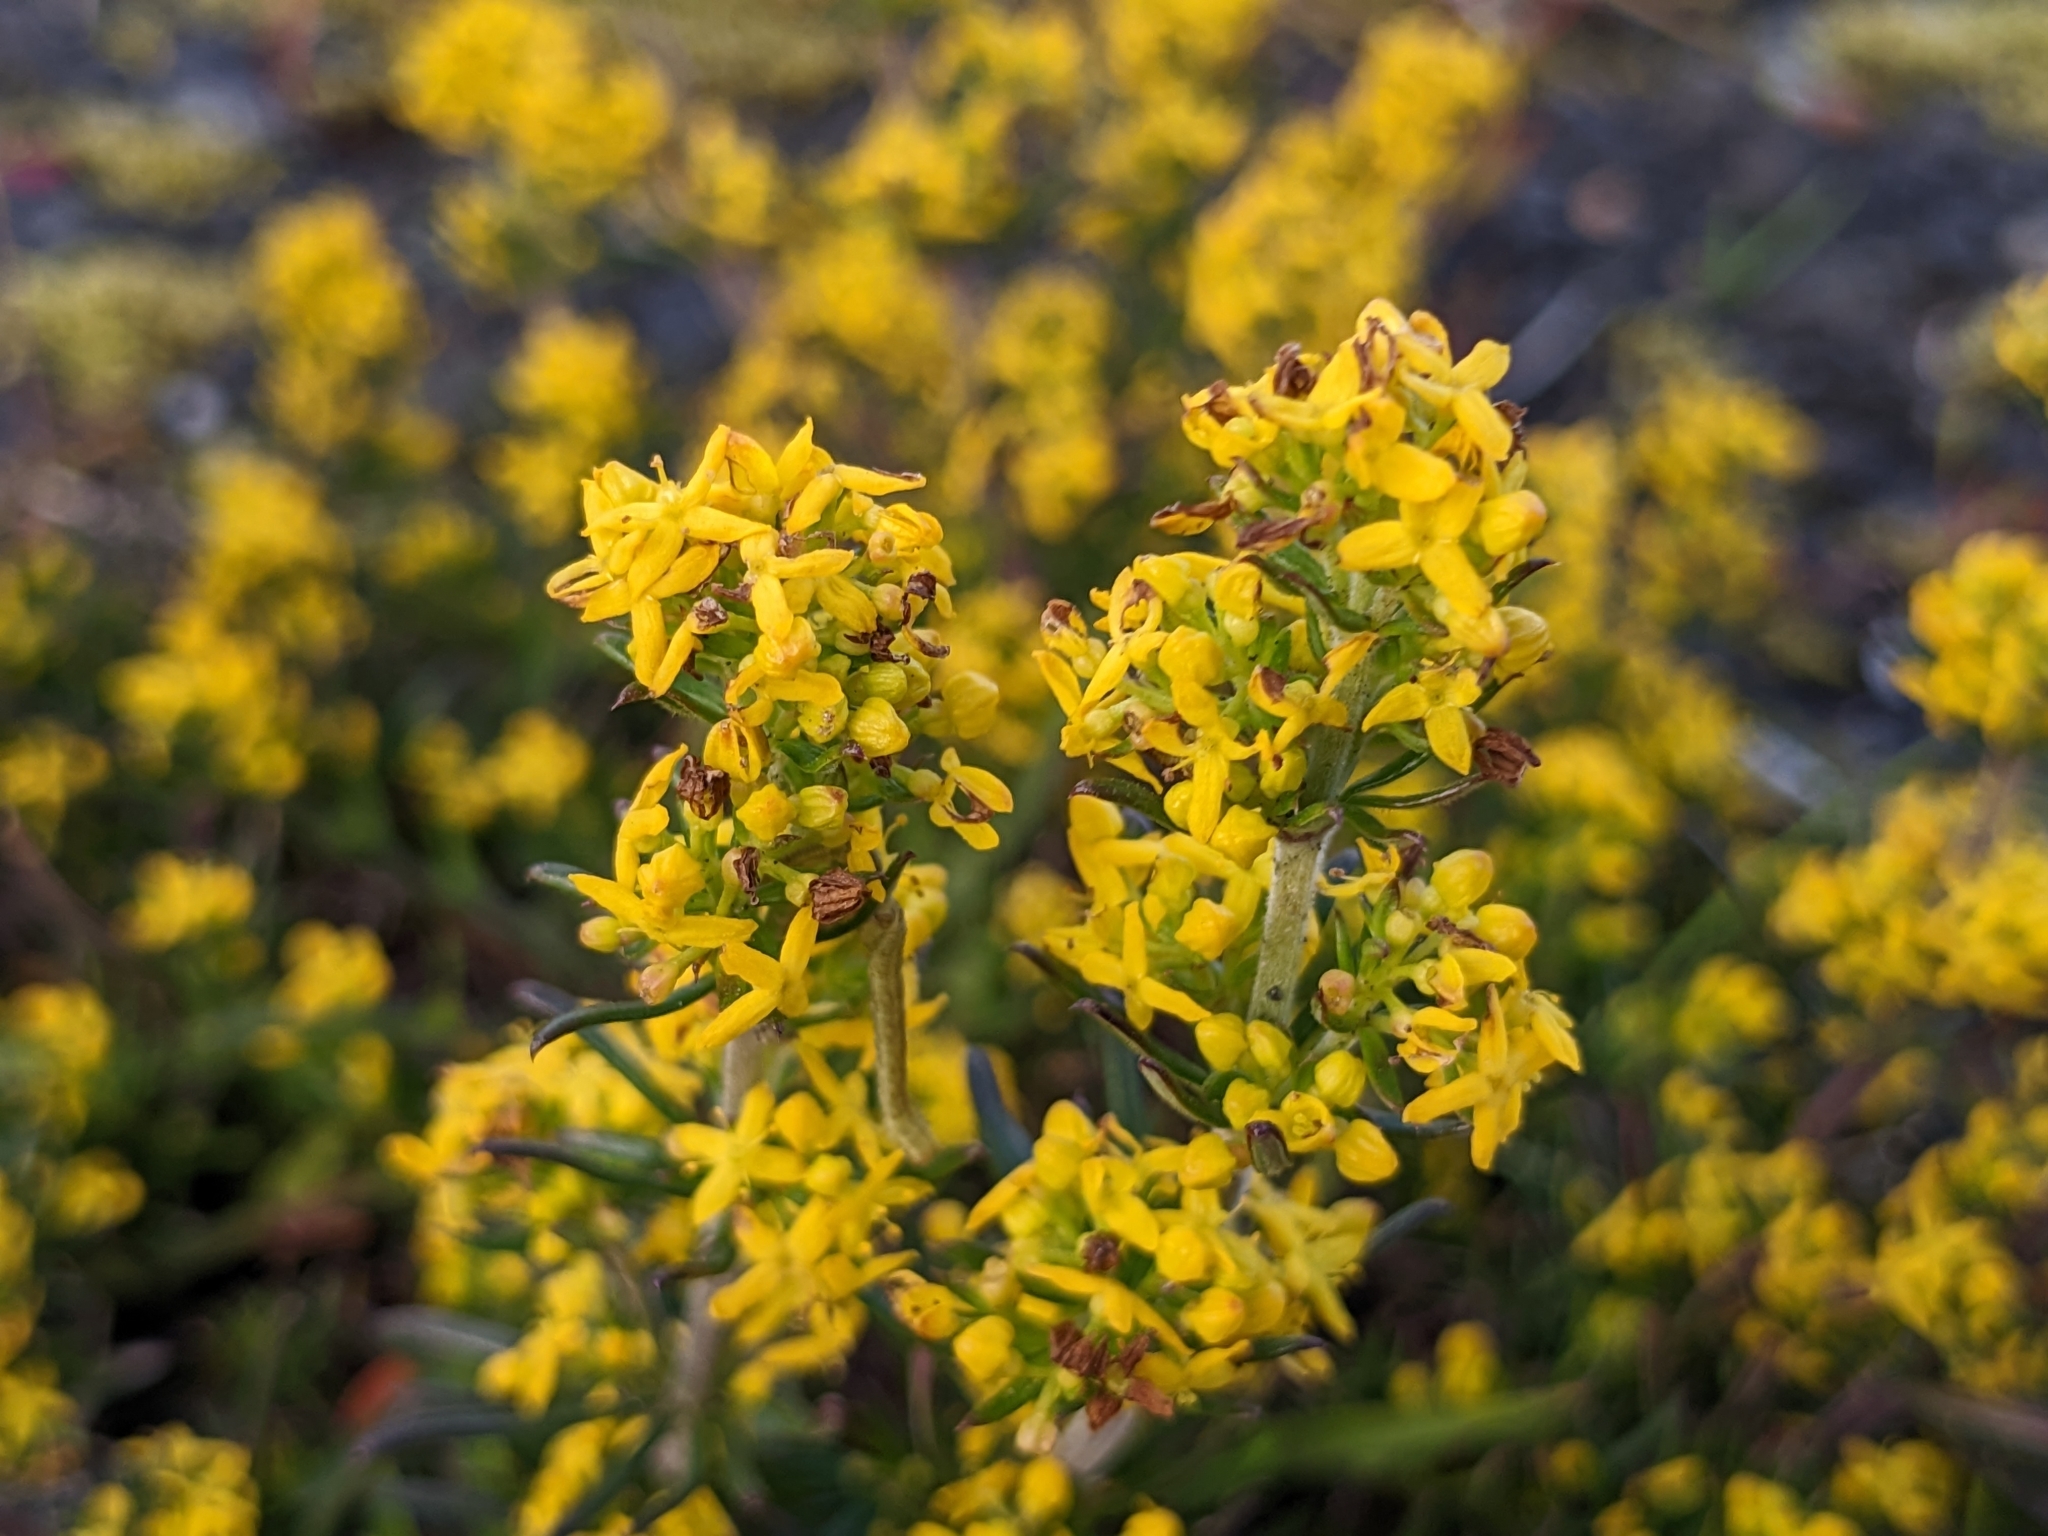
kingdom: Plantae
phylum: Tracheophyta
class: Magnoliopsida
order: Gentianales
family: Rubiaceae
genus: Galium
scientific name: Galium verum
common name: Lady's bedstraw
